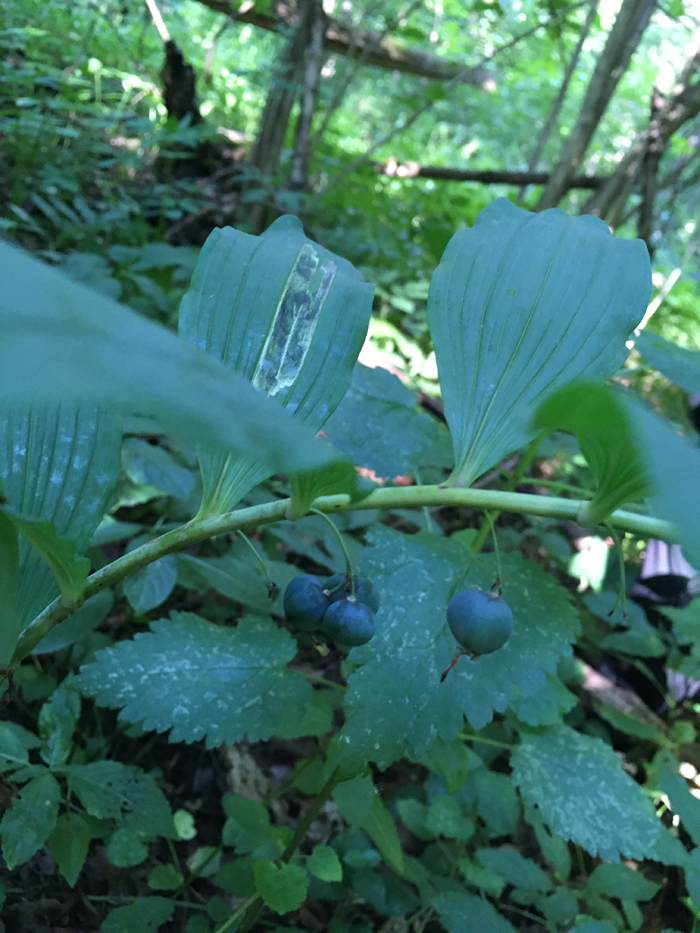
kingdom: Plantae
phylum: Tracheophyta
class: Liliopsida
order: Asparagales
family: Asparagaceae
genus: Polygonatum
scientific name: Polygonatum multiflorum
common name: Solomon's-seal
